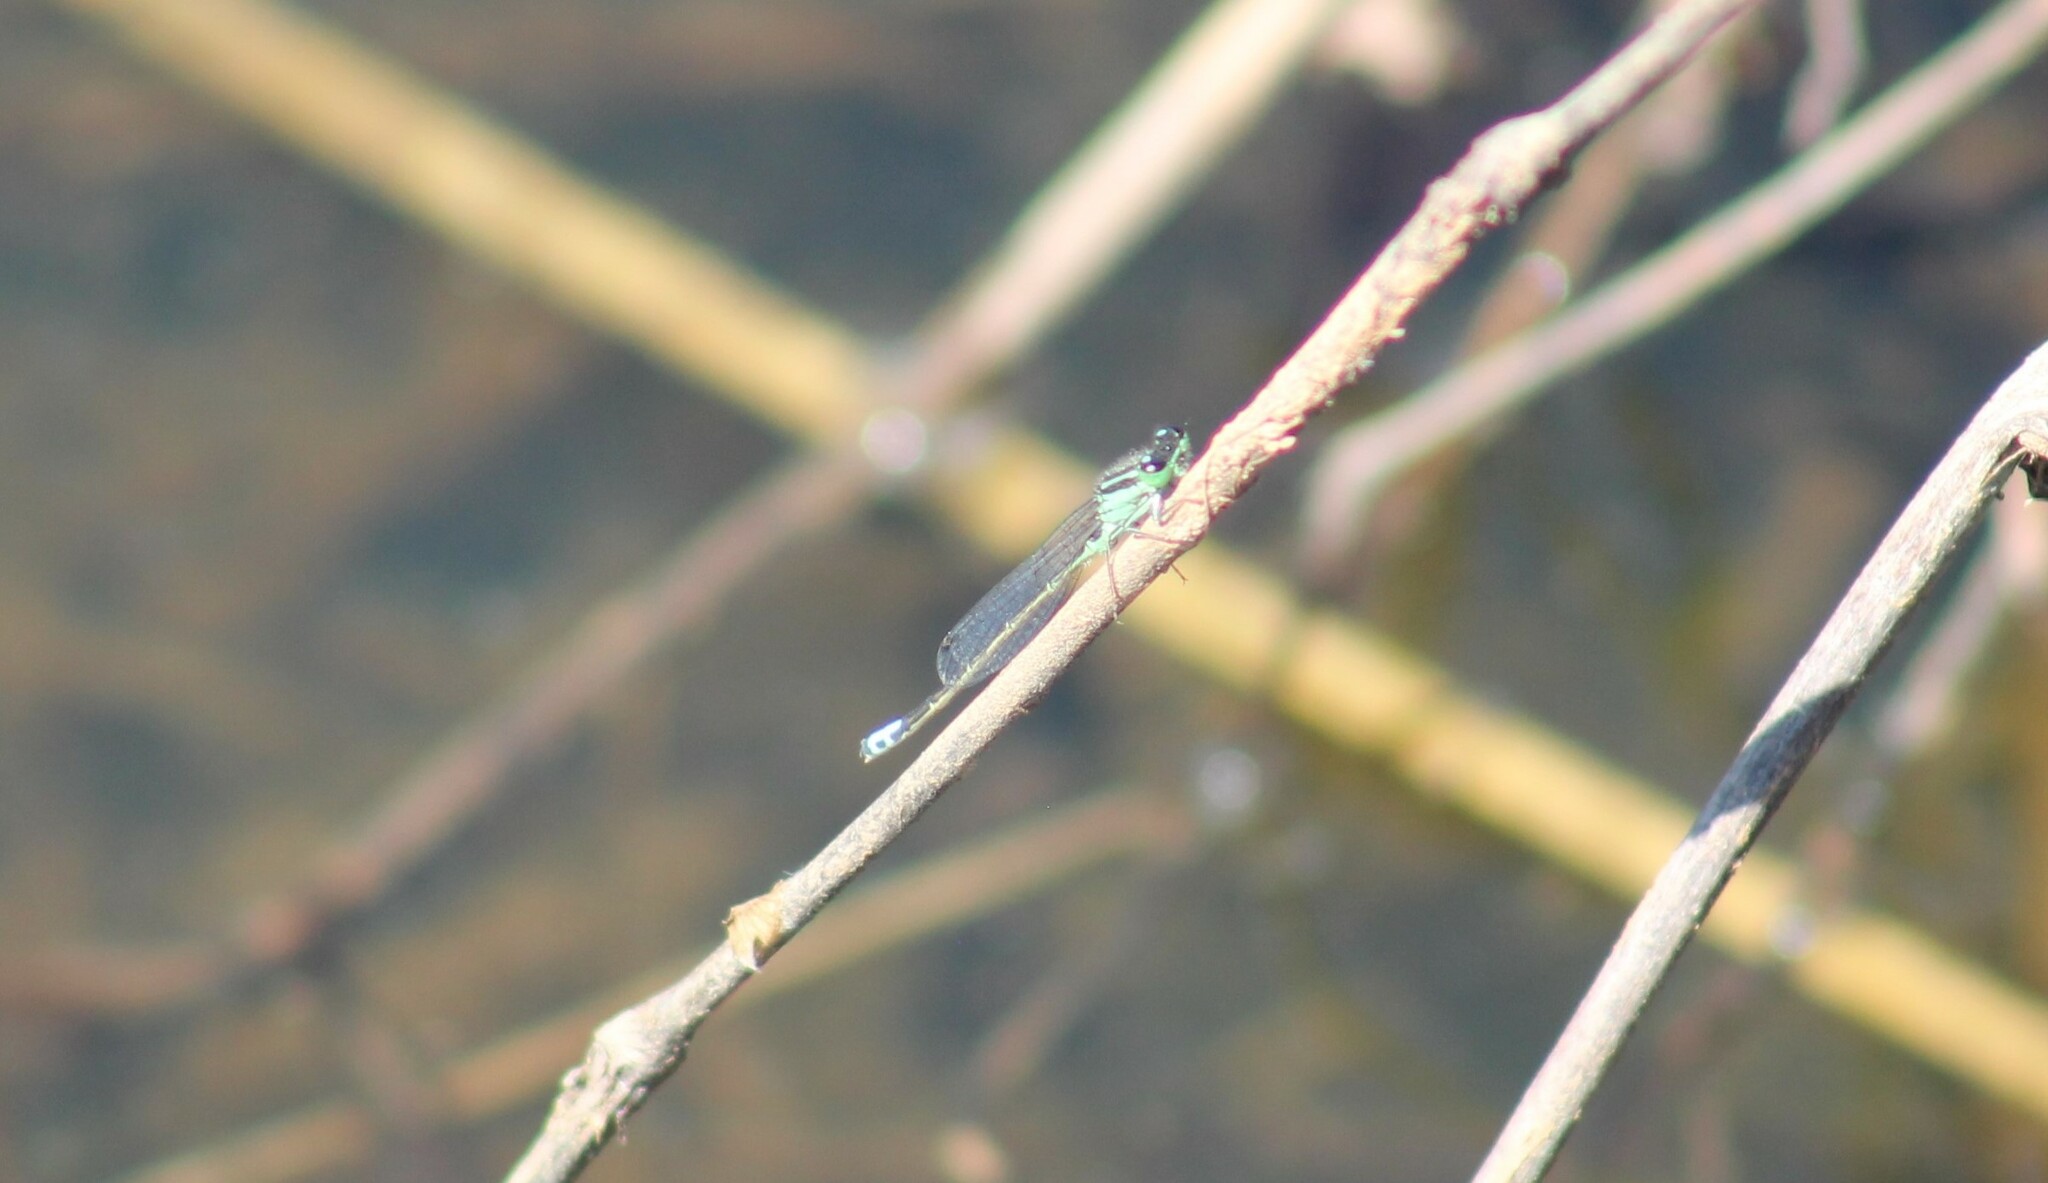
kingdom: Animalia
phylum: Arthropoda
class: Insecta
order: Odonata
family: Coenagrionidae
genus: Ischnura
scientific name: Ischnura verticalis
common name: Eastern forktail
